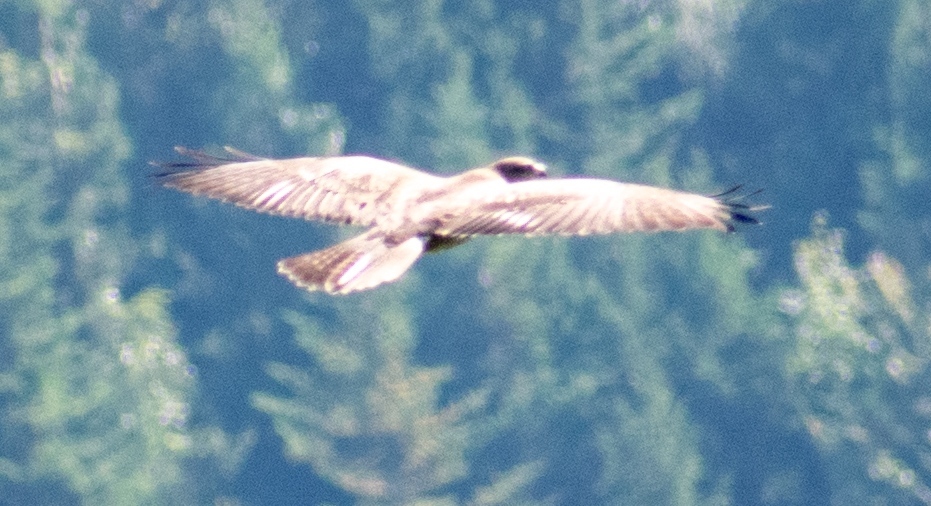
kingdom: Animalia
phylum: Chordata
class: Aves
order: Accipitriformes
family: Accipitridae
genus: Buteo
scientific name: Buteo buteo
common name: Common buzzard
